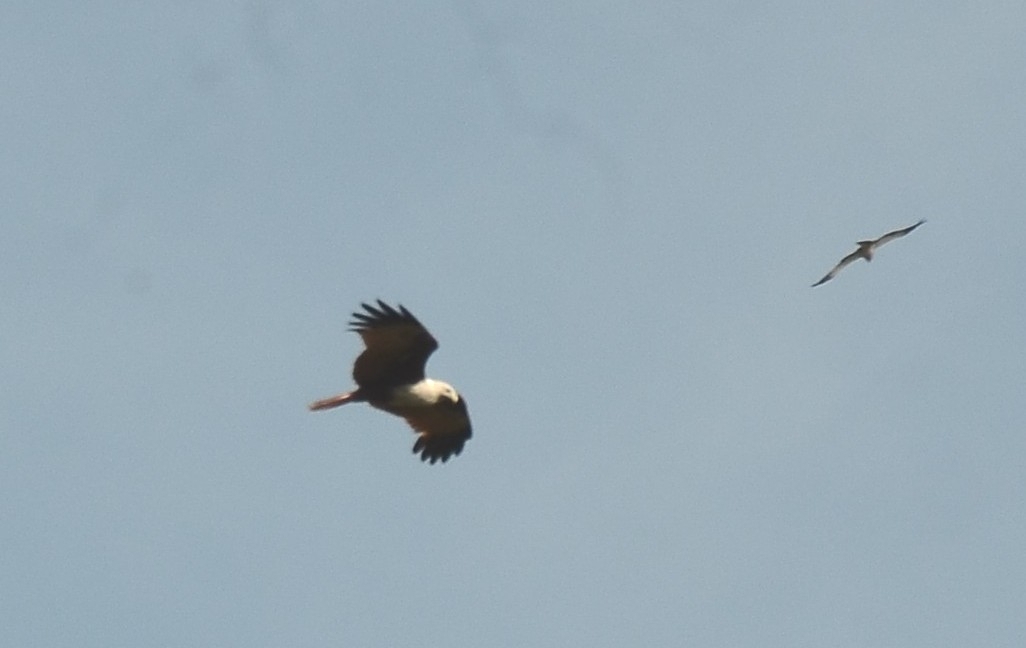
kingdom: Animalia
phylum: Chordata
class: Aves
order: Accipitriformes
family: Accipitridae
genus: Haliastur
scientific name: Haliastur indus
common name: Brahminy kite
